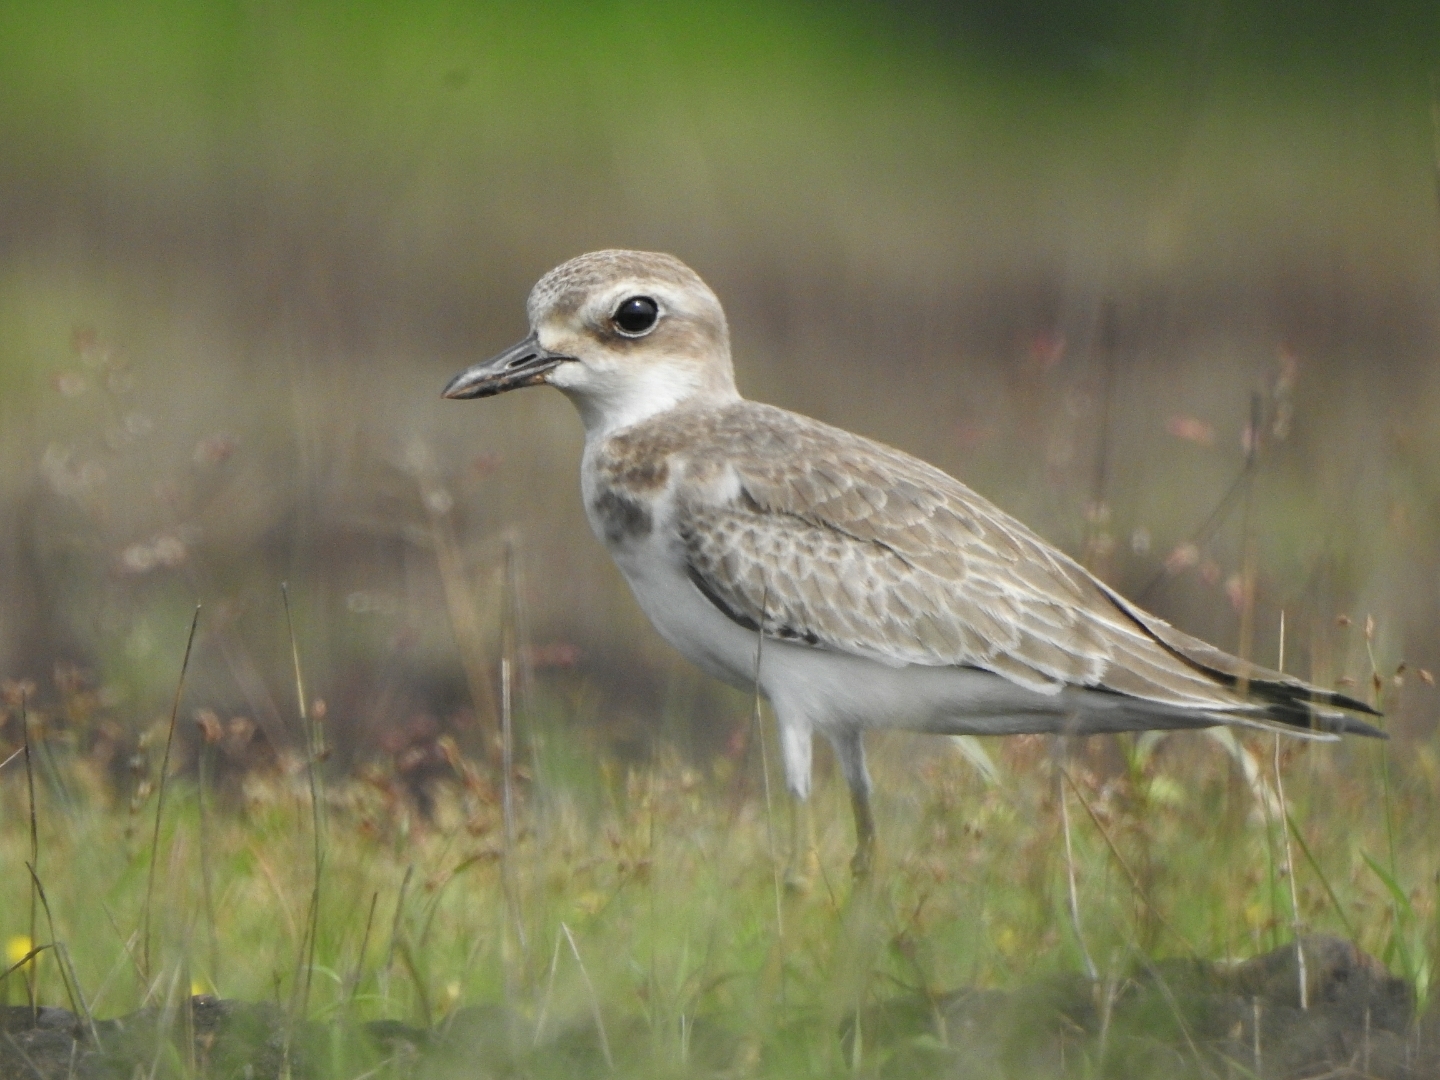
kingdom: Animalia
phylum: Chordata
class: Aves
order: Charadriiformes
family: Charadriidae
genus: Charadrius
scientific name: Charadrius leschenaultii
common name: Greater sand plover
